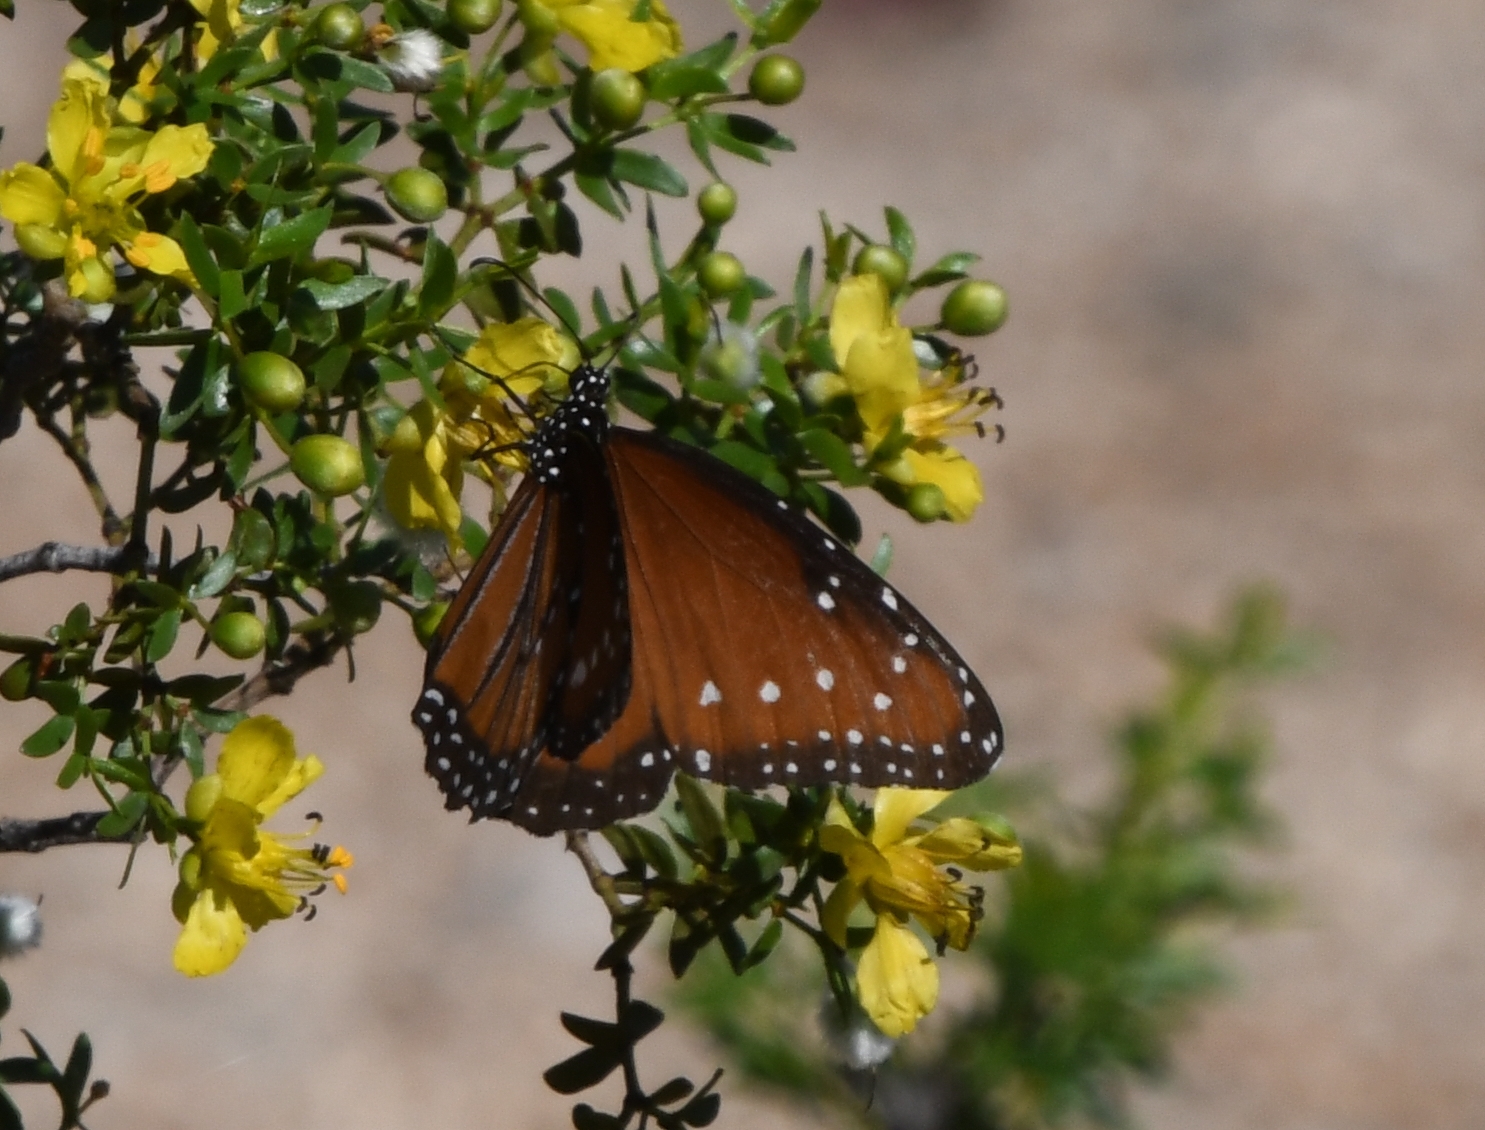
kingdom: Animalia
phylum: Arthropoda
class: Insecta
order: Lepidoptera
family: Nymphalidae
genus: Danaus
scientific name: Danaus gilippus
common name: Queen
